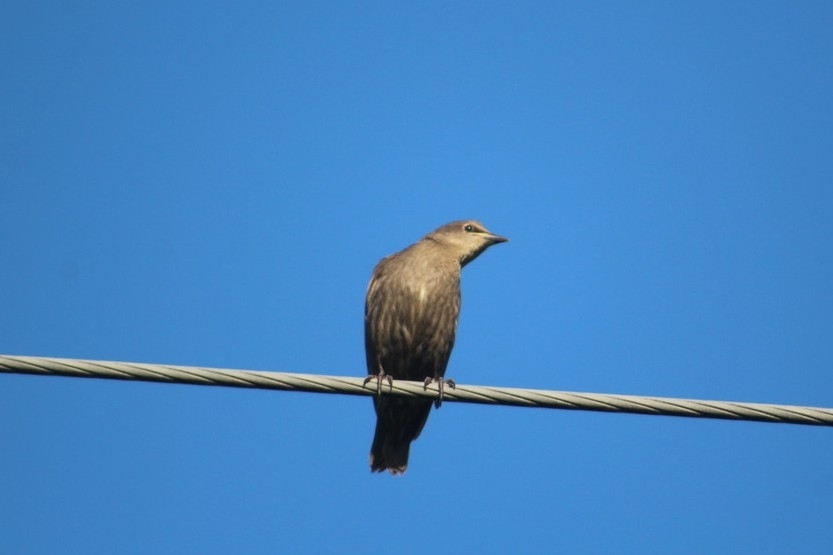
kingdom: Animalia
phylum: Chordata
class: Aves
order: Passeriformes
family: Sturnidae
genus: Sturnus
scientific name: Sturnus vulgaris
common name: Common starling
